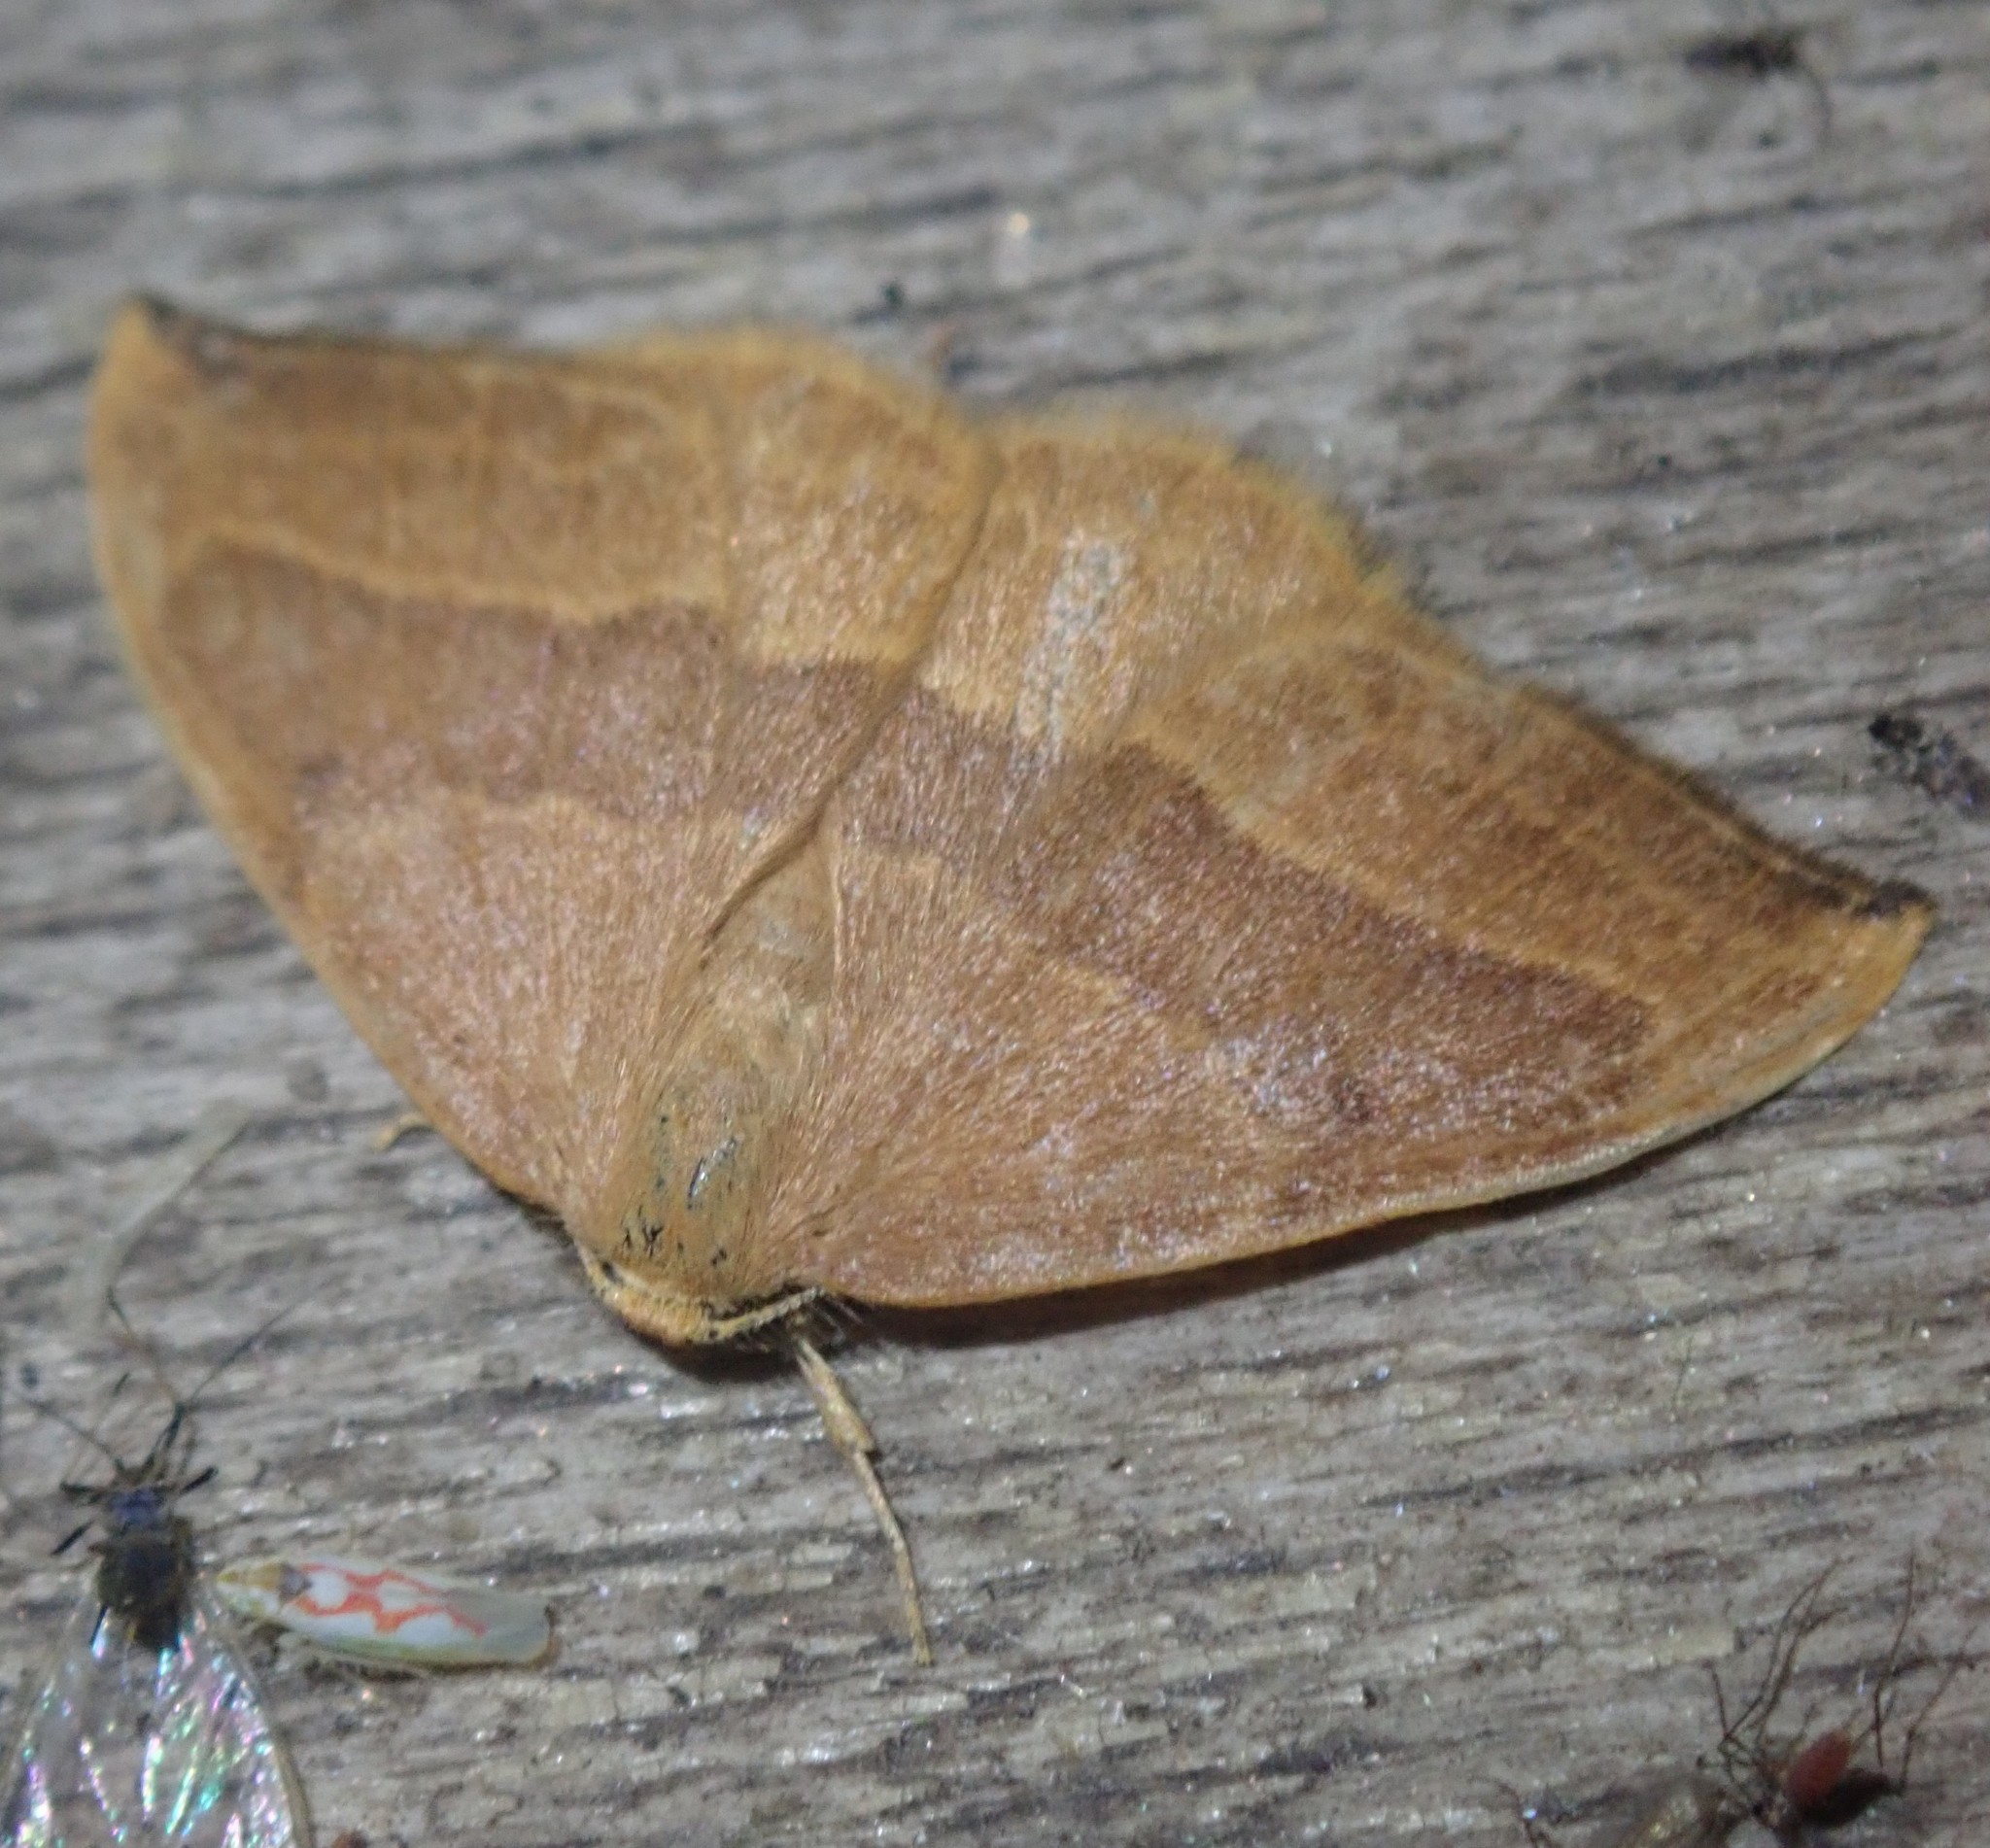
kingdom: Animalia
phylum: Arthropoda
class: Insecta
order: Lepidoptera
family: Drepanidae
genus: Watsonalla
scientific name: Watsonalla cultraria
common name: Barred hook-tip
